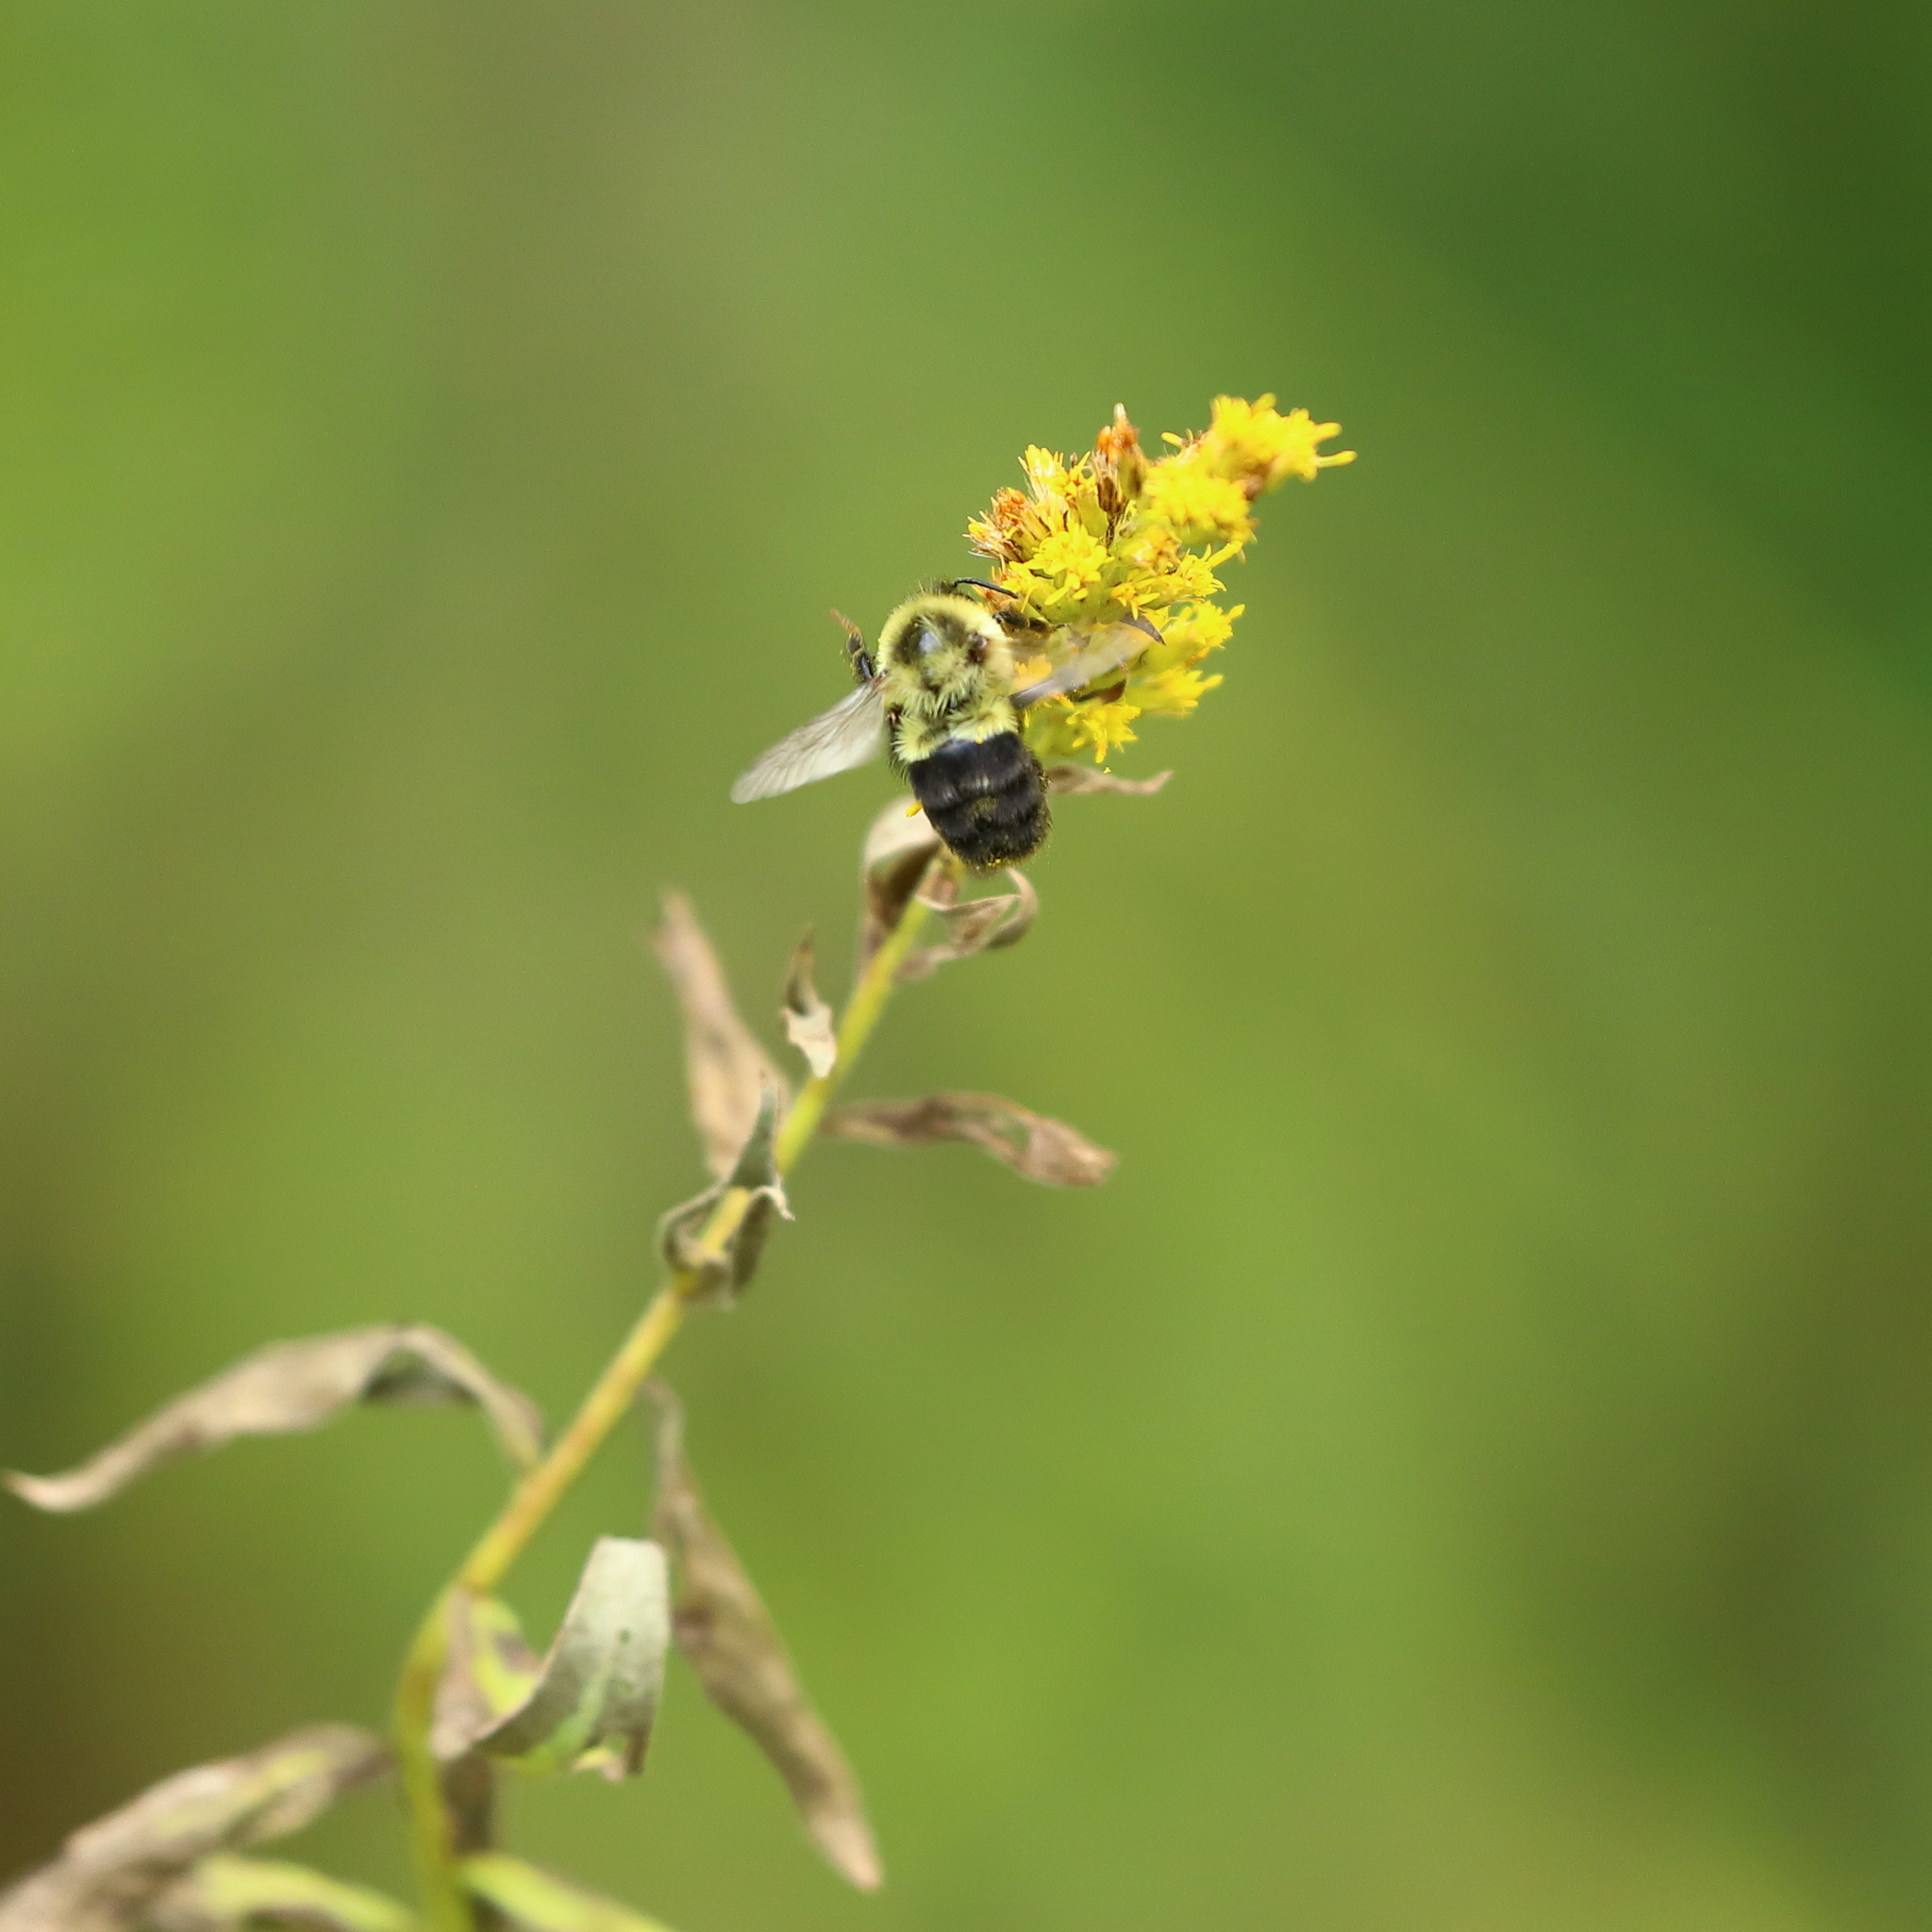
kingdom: Animalia
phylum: Arthropoda
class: Insecta
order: Hymenoptera
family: Apidae
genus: Bombus
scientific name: Bombus impatiens
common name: Common eastern bumble bee
